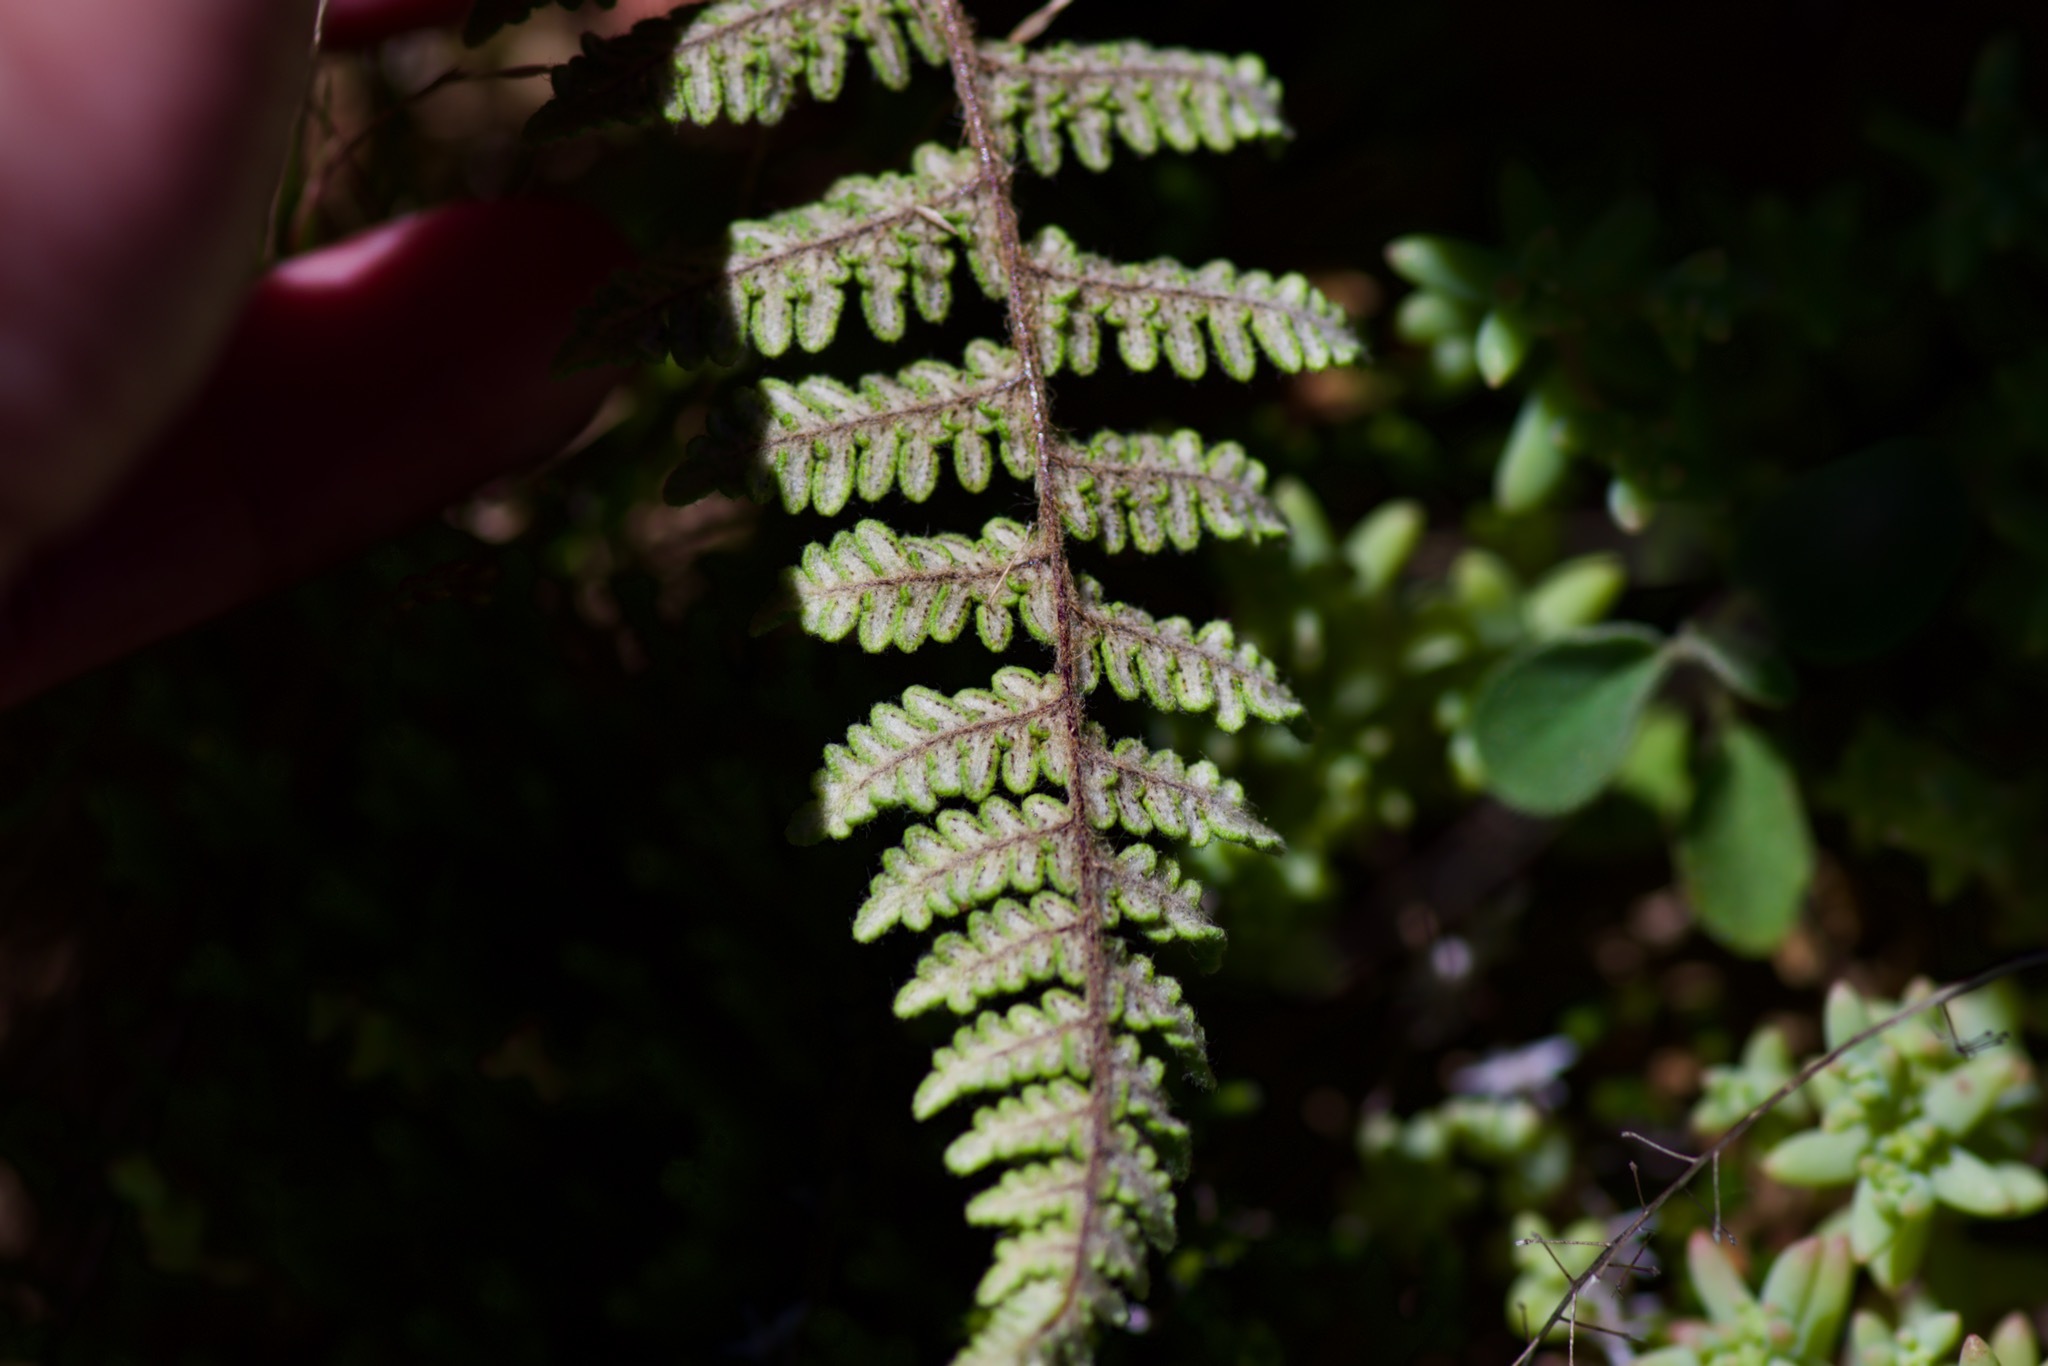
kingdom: Plantae
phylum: Tracheophyta
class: Polypodiopsida
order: Polypodiales
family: Pteridaceae
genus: Myriopteris
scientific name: Myriopteris tomentosa
